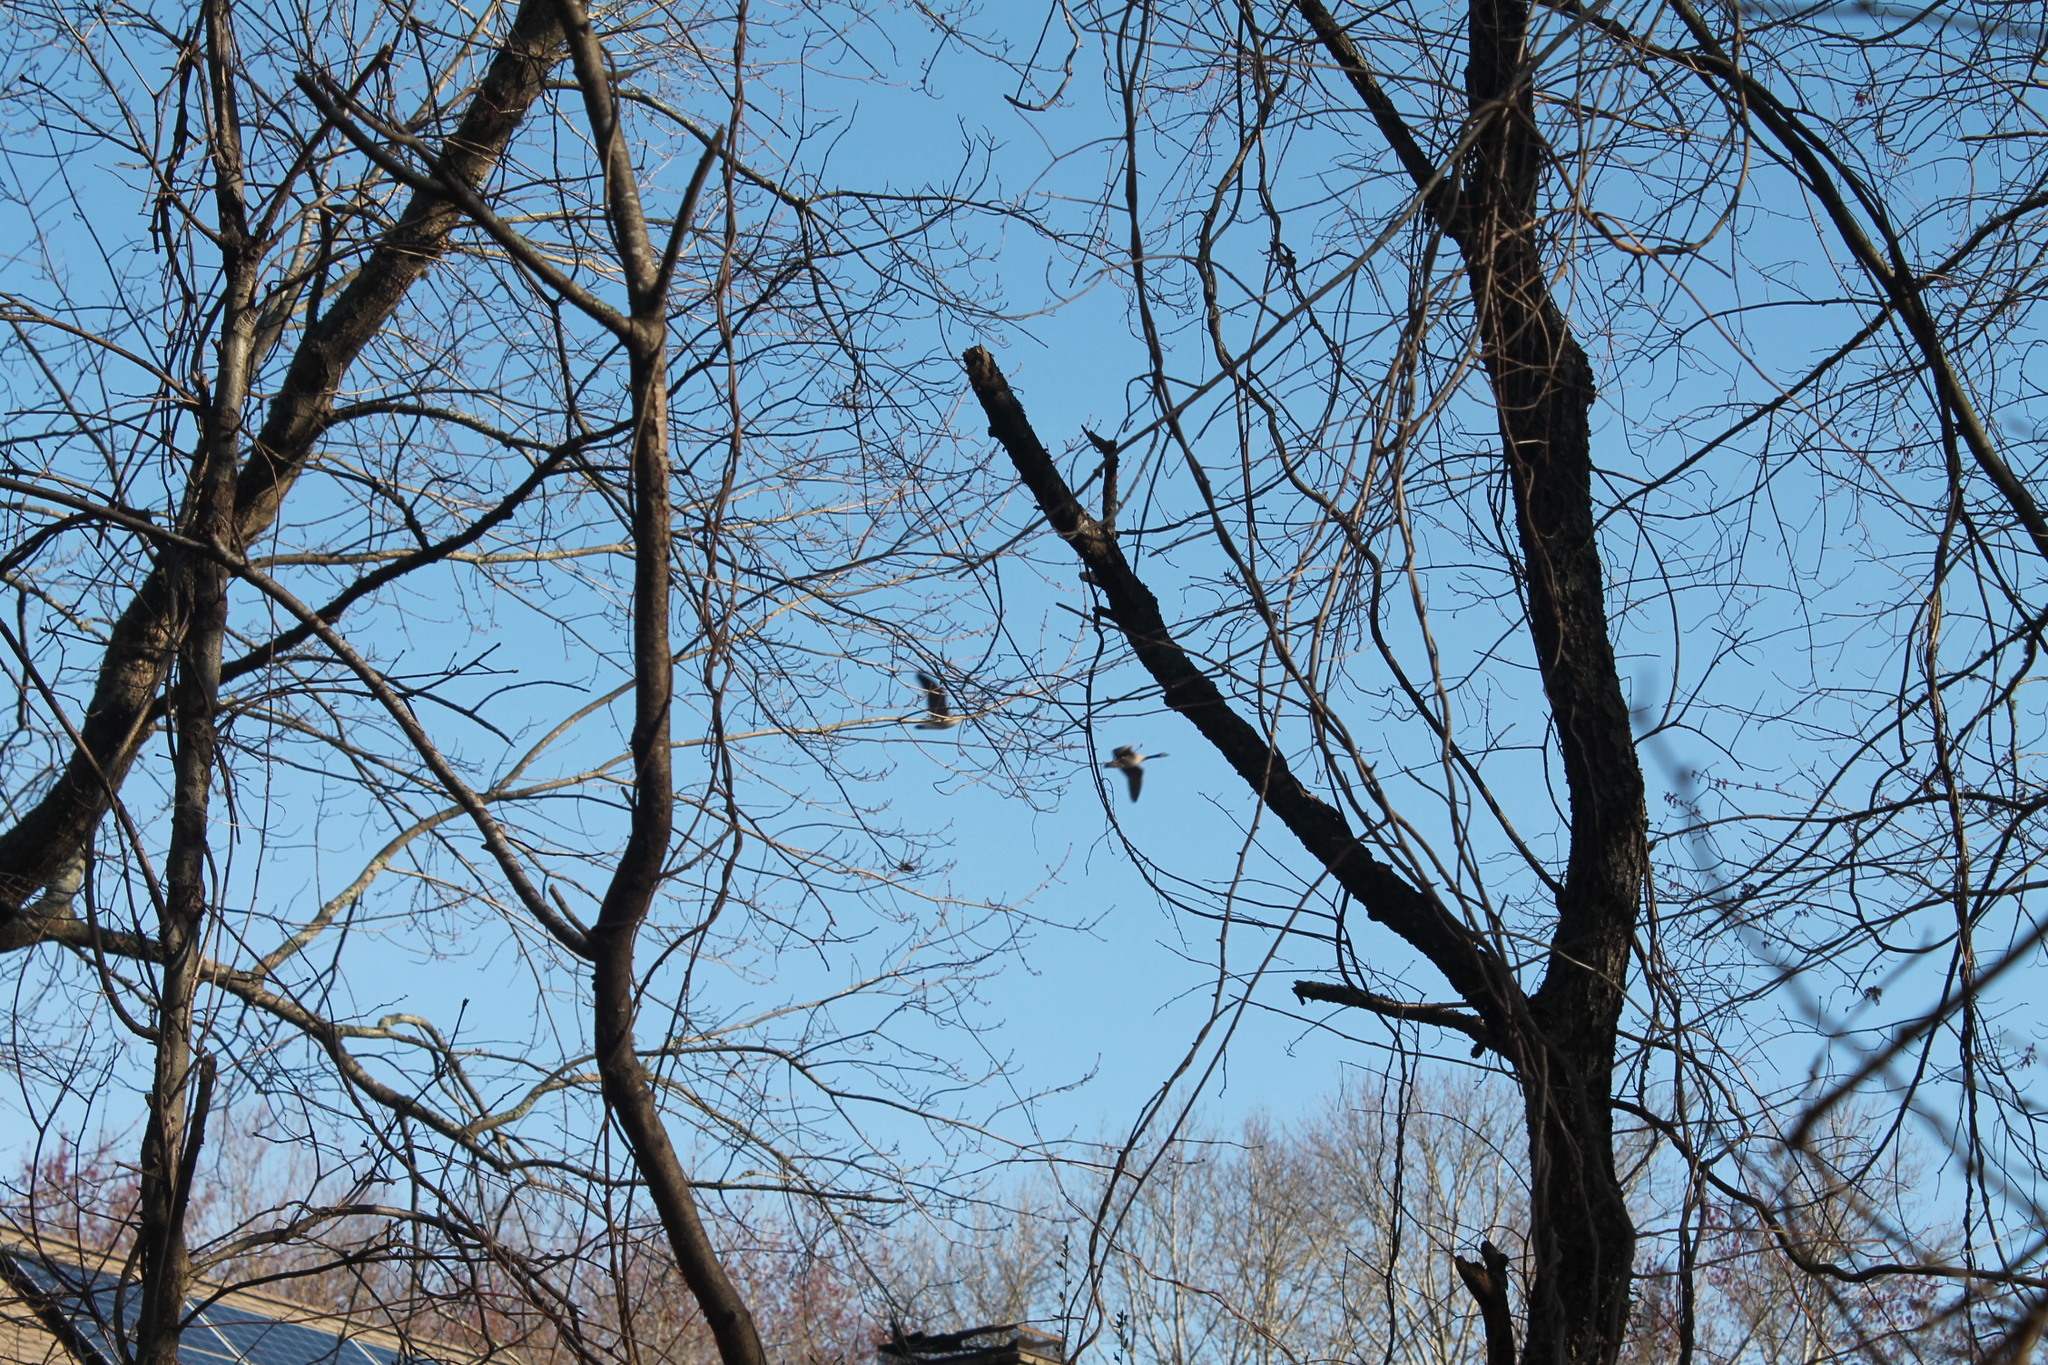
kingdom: Animalia
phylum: Chordata
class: Aves
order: Anseriformes
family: Anatidae
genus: Branta
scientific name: Branta canadensis
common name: Canada goose
